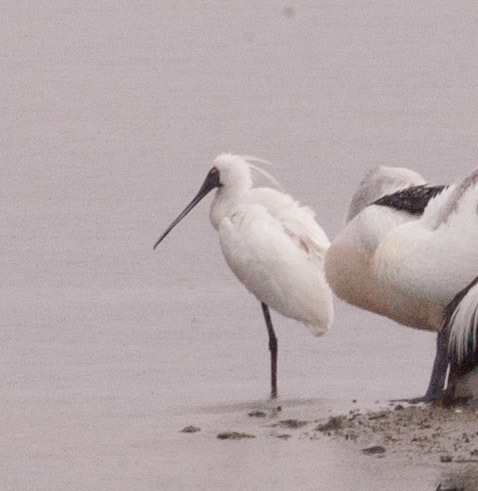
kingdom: Animalia
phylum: Chordata
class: Aves
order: Pelecaniformes
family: Threskiornithidae
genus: Platalea
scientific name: Platalea regia
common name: Royal spoonbill
